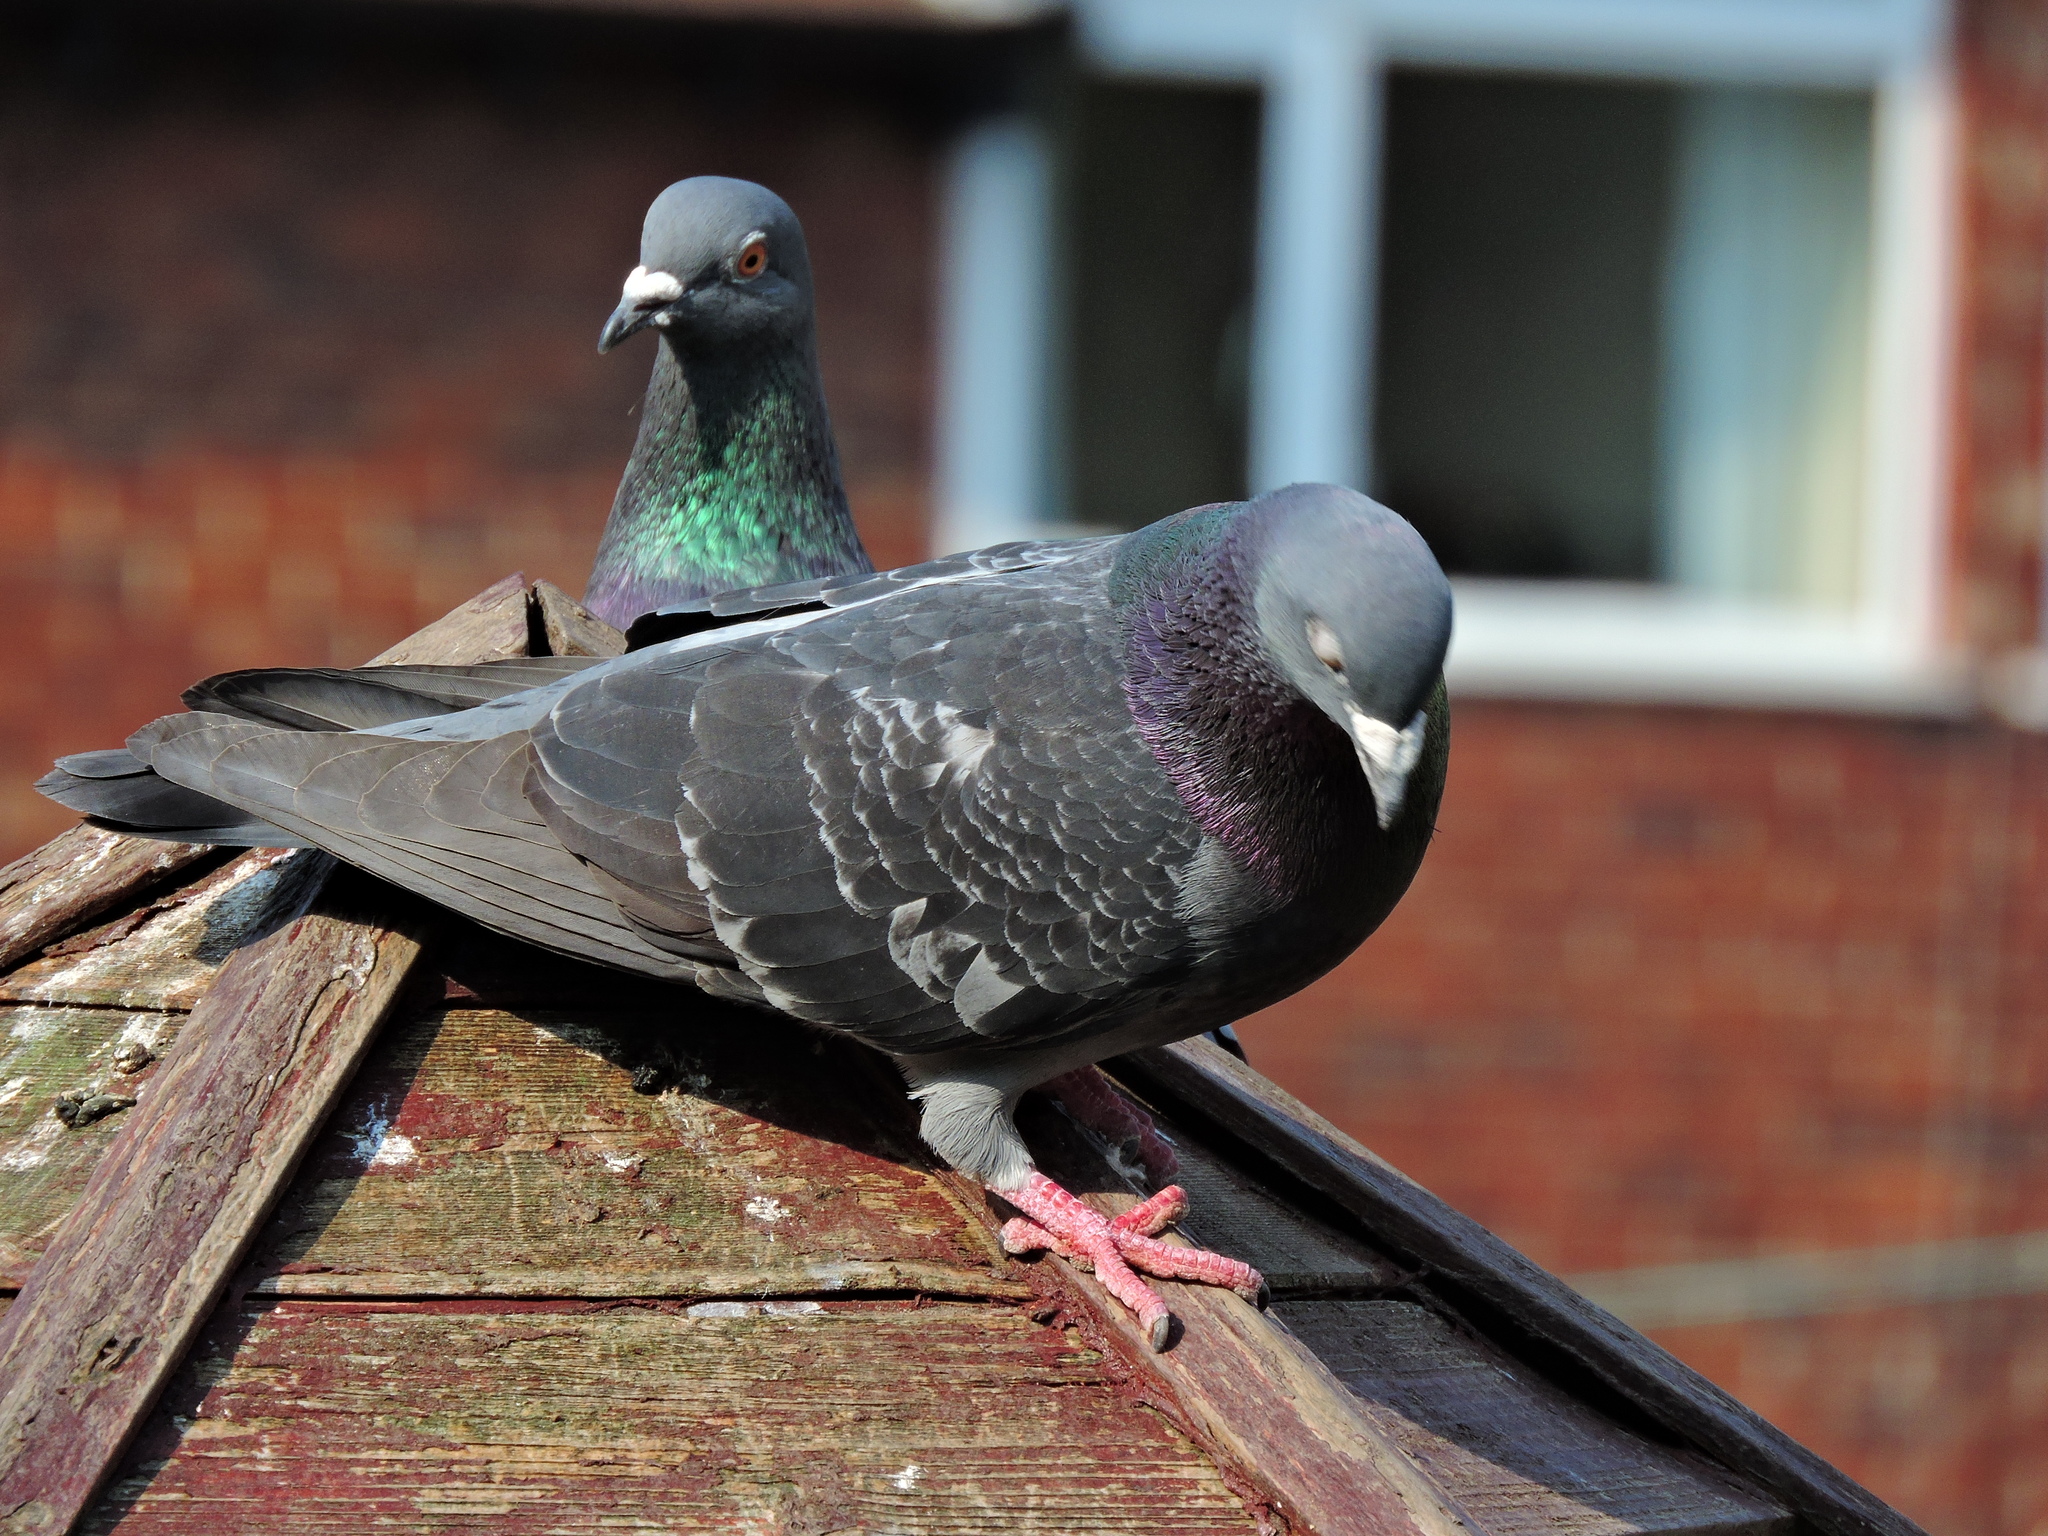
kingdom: Animalia
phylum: Chordata
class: Aves
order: Columbiformes
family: Columbidae
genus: Columba
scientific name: Columba livia
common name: Rock pigeon
